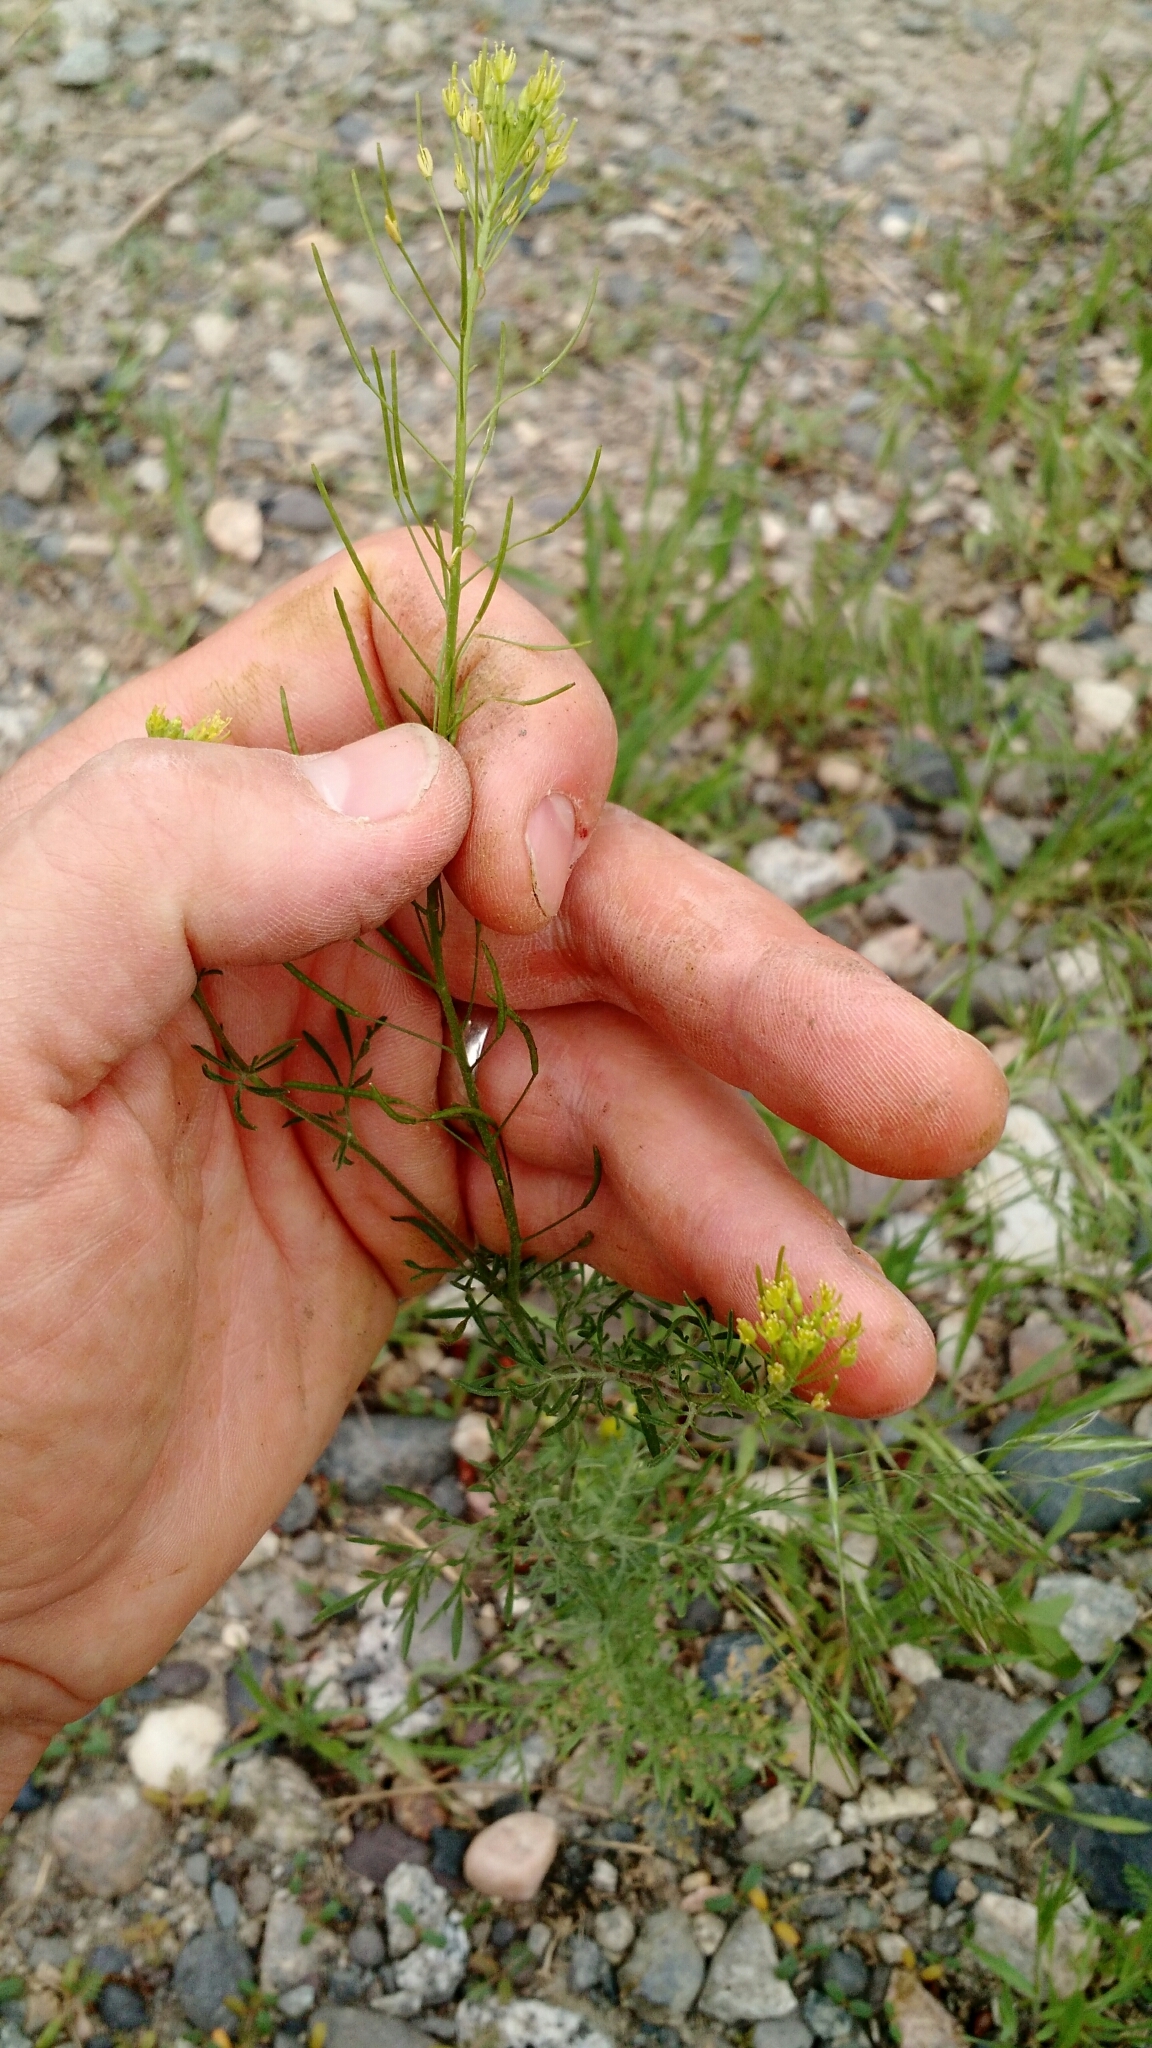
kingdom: Plantae
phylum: Tracheophyta
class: Magnoliopsida
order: Brassicales
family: Brassicaceae
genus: Descurainia
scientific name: Descurainia sophia
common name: Flixweed
